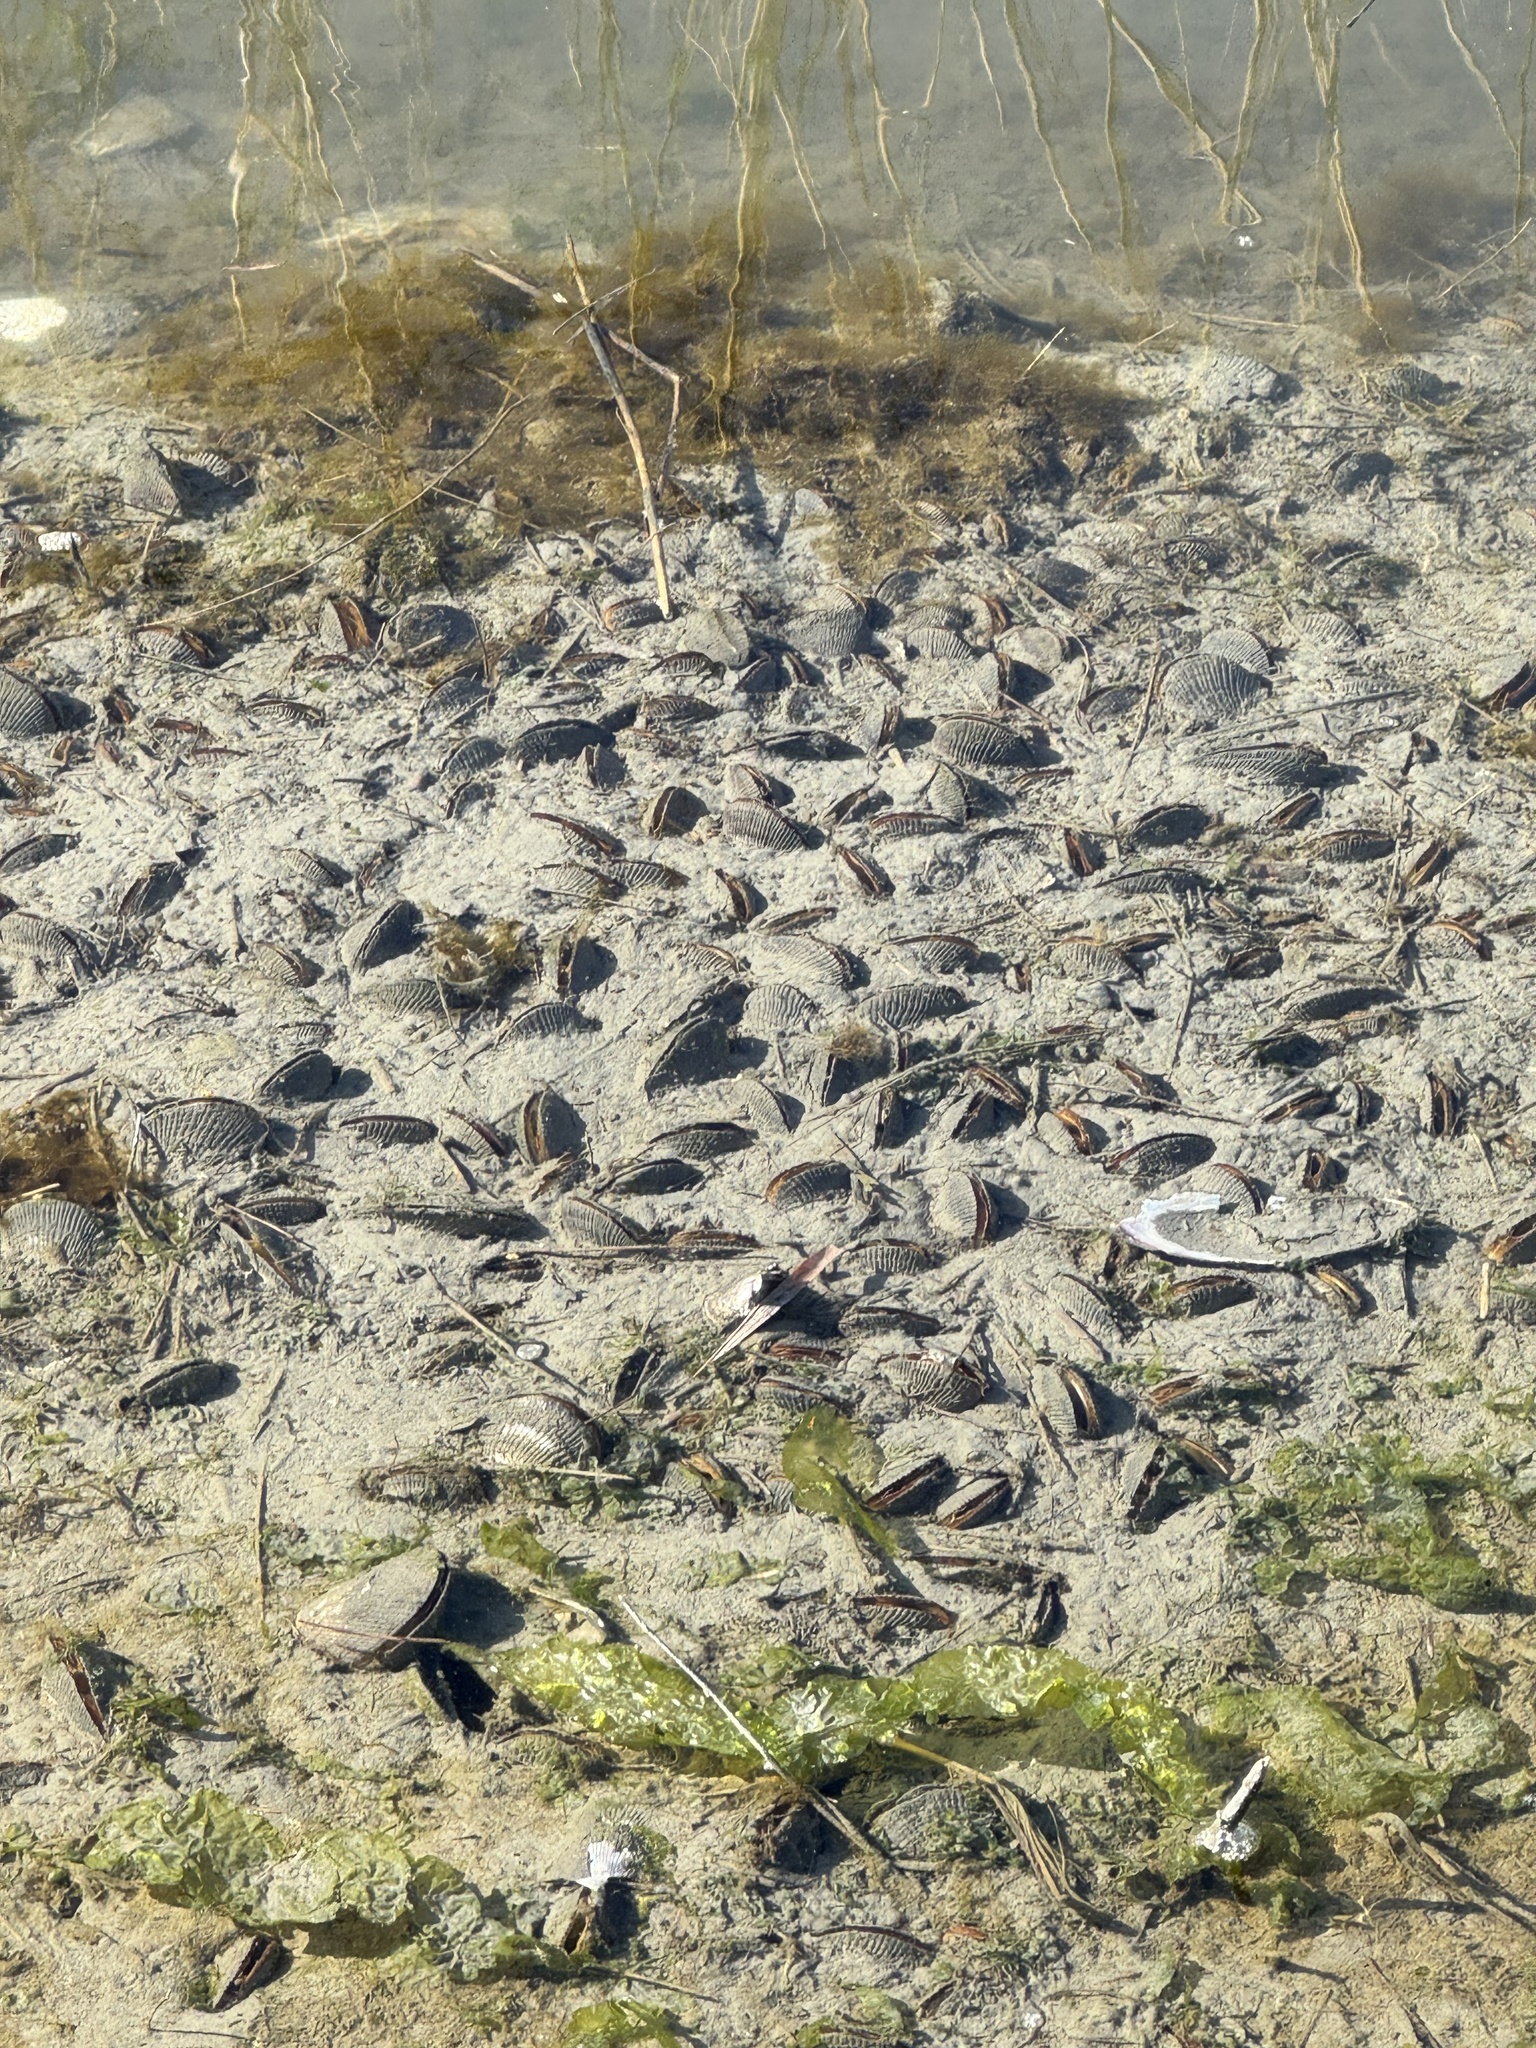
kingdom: Animalia
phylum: Mollusca
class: Bivalvia
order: Mytilida
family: Mytilidae
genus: Geukensia
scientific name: Geukensia demissa
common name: Ribbed mussel
